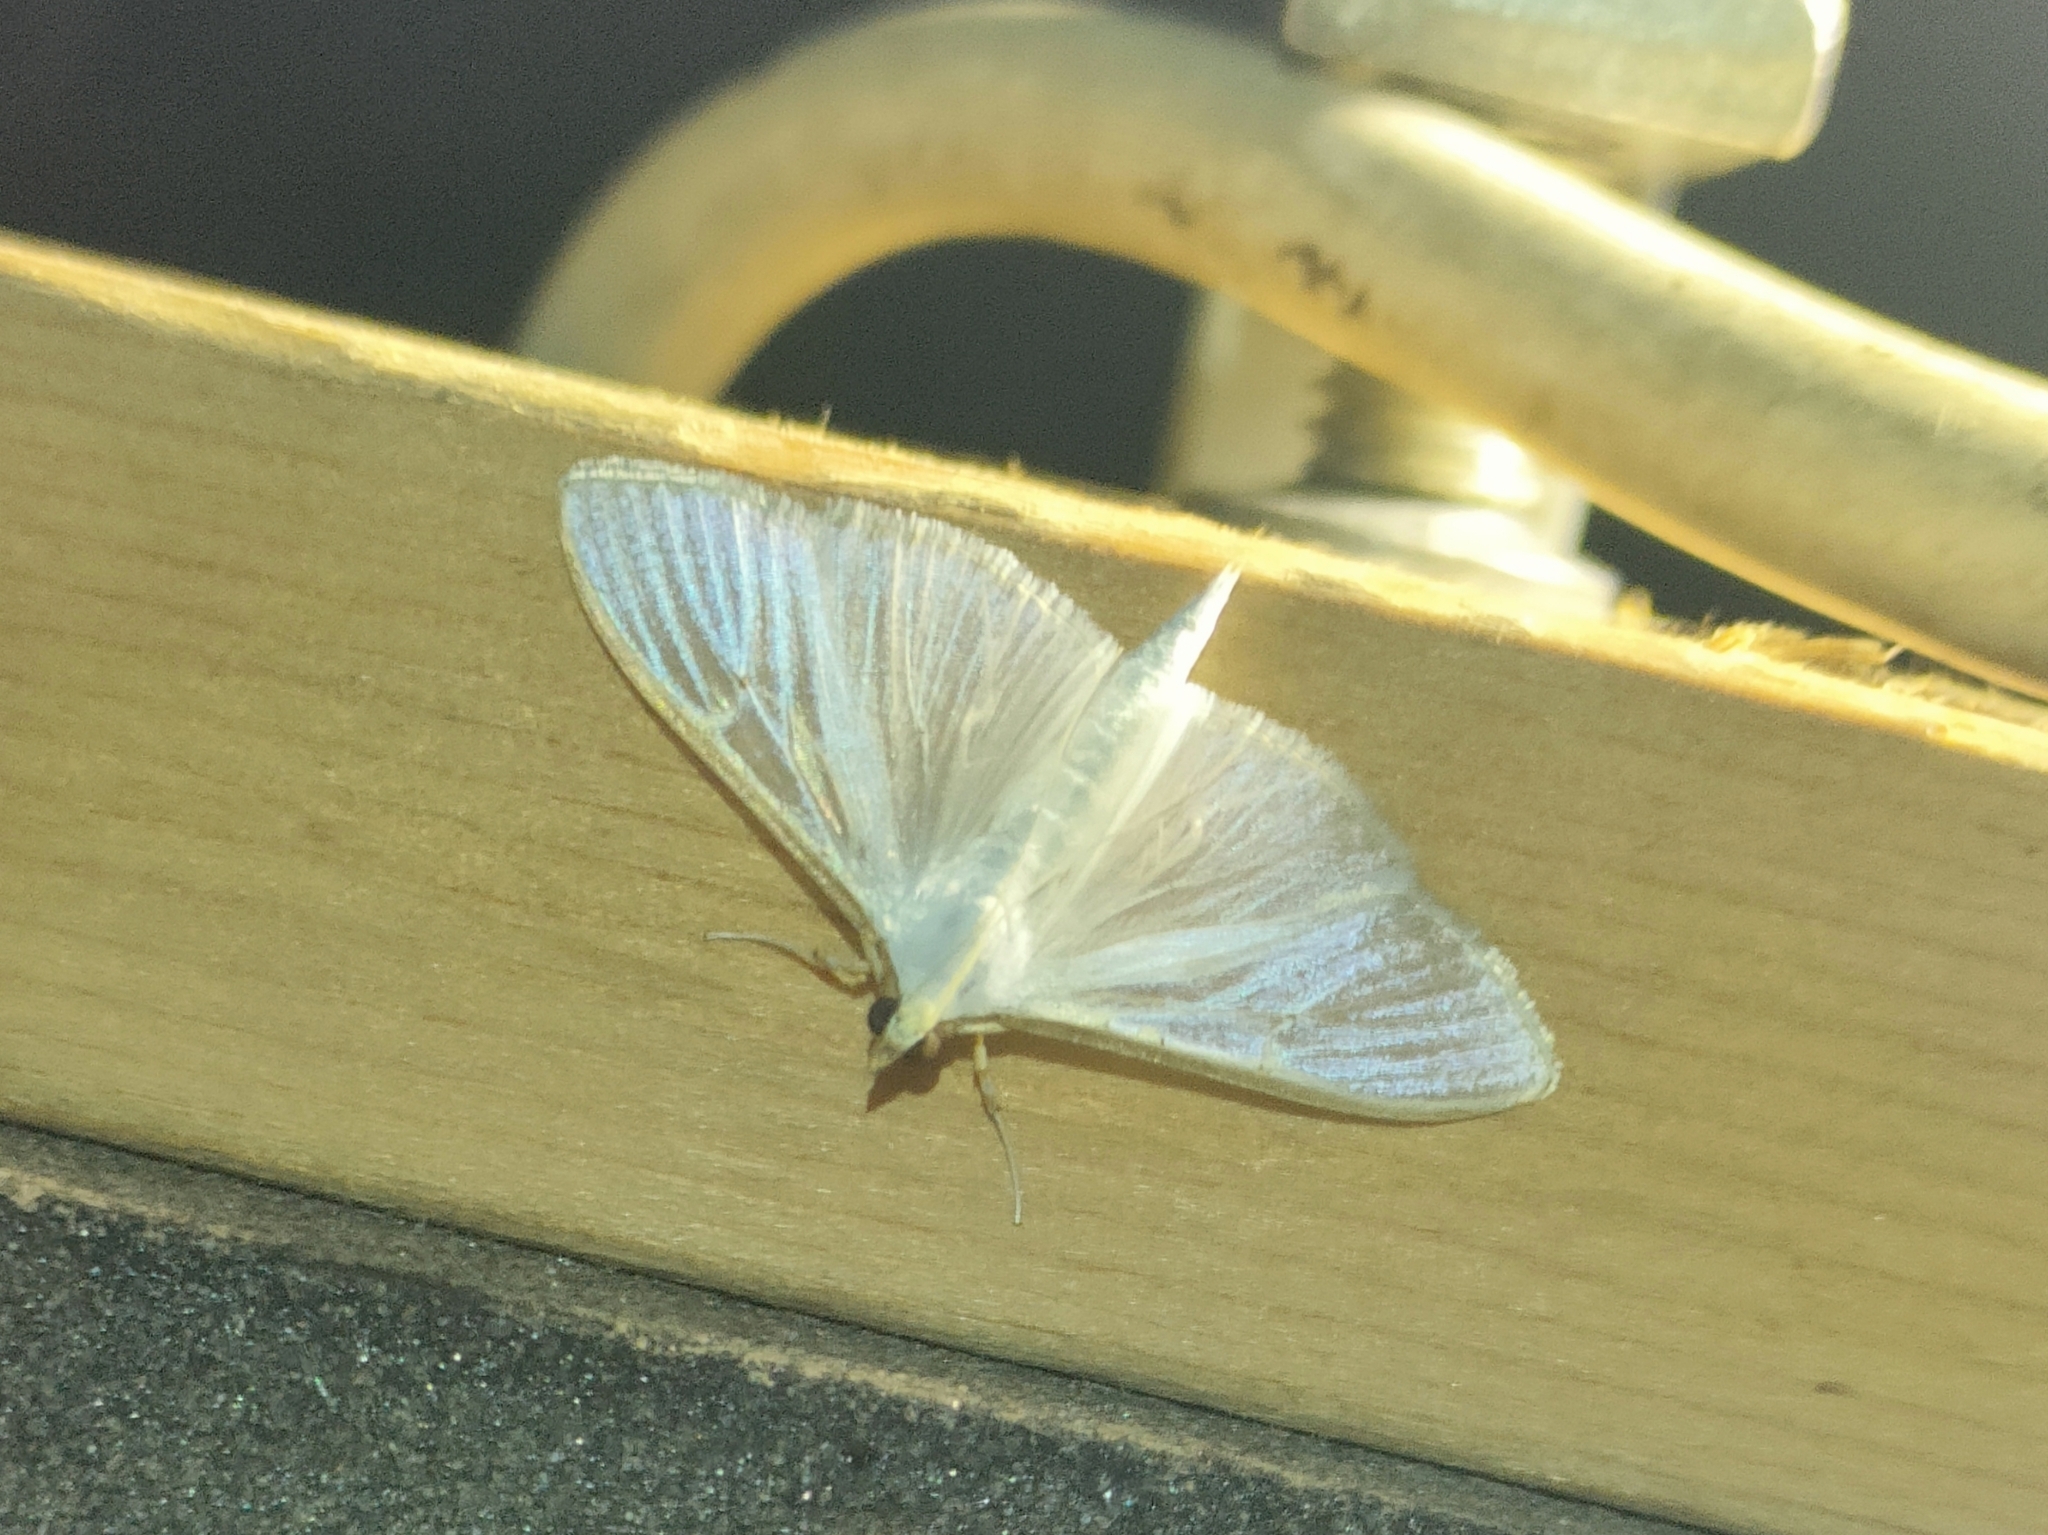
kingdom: Animalia
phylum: Arthropoda
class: Insecta
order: Lepidoptera
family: Crambidae
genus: Palpita
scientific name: Palpita vitrealis
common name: Olive-tree pearl
